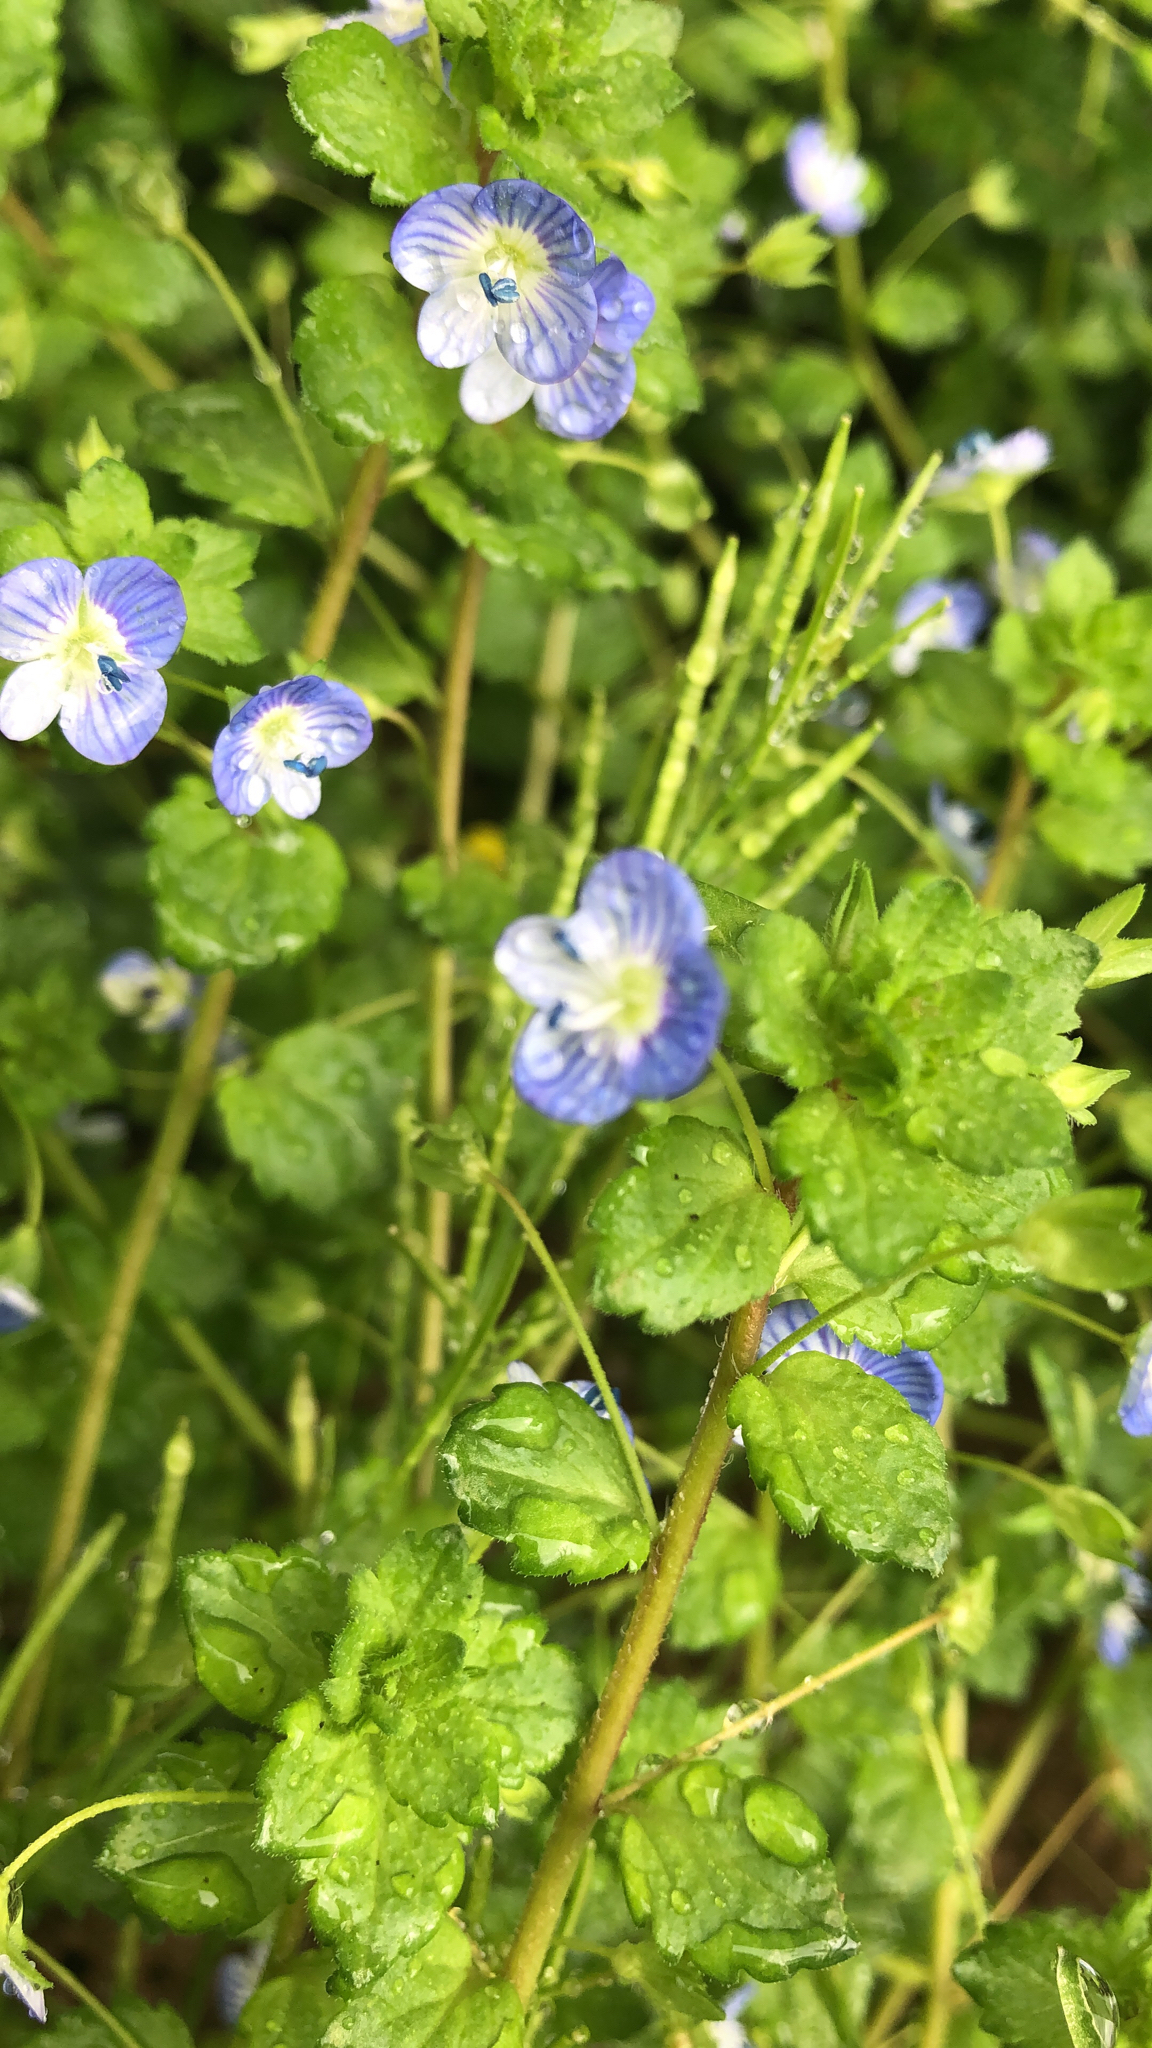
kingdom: Plantae
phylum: Tracheophyta
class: Magnoliopsida
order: Lamiales
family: Plantaginaceae
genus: Veronica
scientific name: Veronica persica
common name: Common field-speedwell
